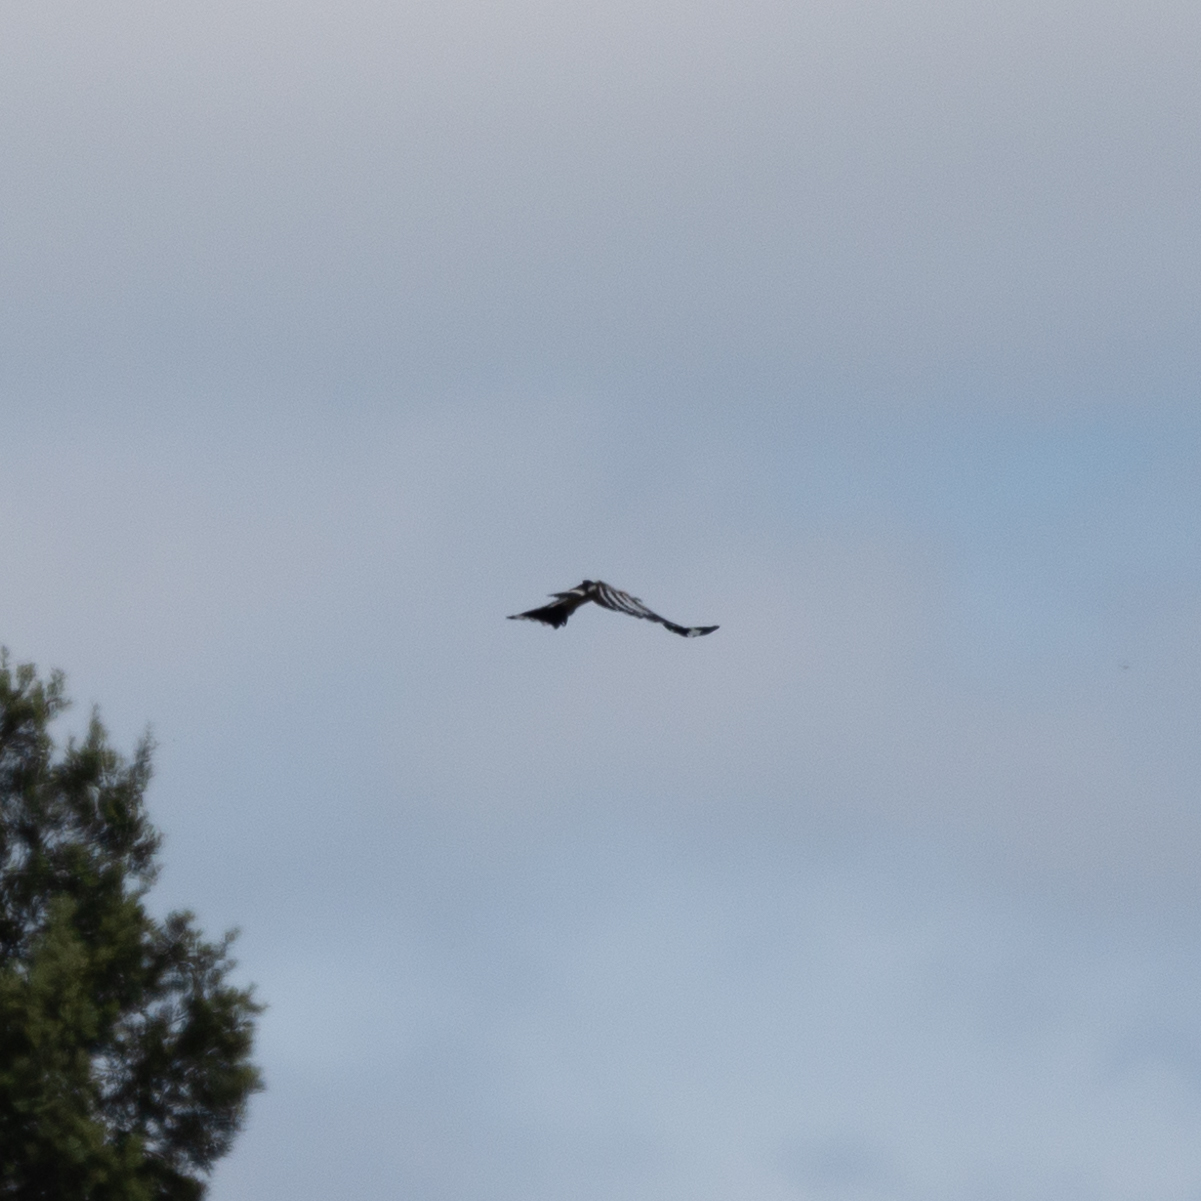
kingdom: Animalia
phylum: Chordata
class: Aves
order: Bucerotiformes
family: Upupidae
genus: Upupa
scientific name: Upupa epops
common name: Eurasian hoopoe
